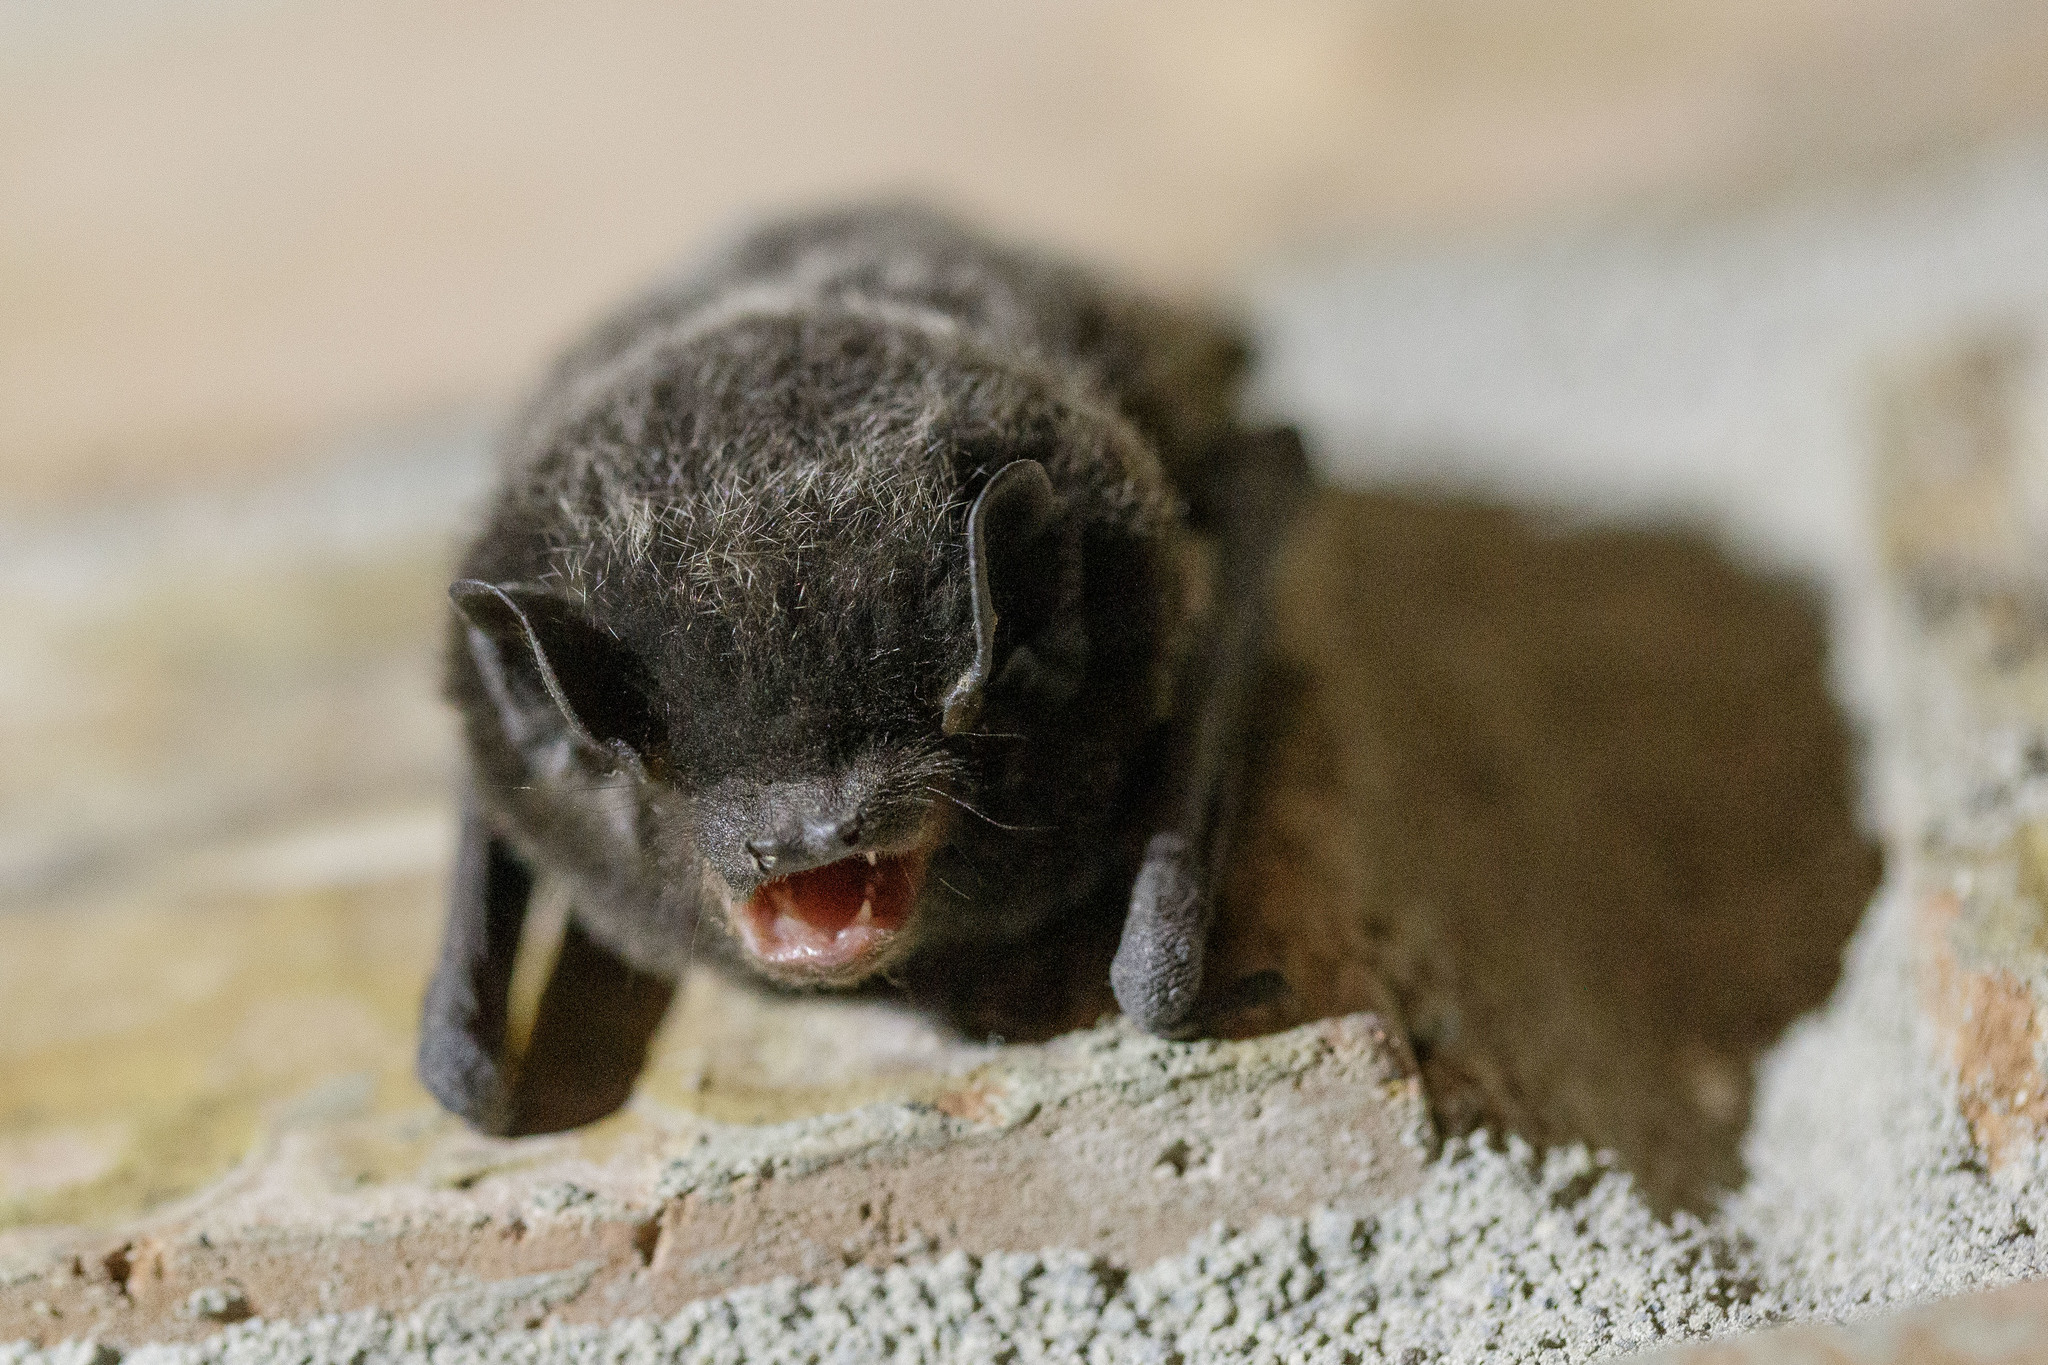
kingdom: Animalia
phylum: Chordata
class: Mammalia
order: Chiroptera
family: Vespertilionidae
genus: Lasionycteris
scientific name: Lasionycteris noctivagans
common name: Silver-haired bat
